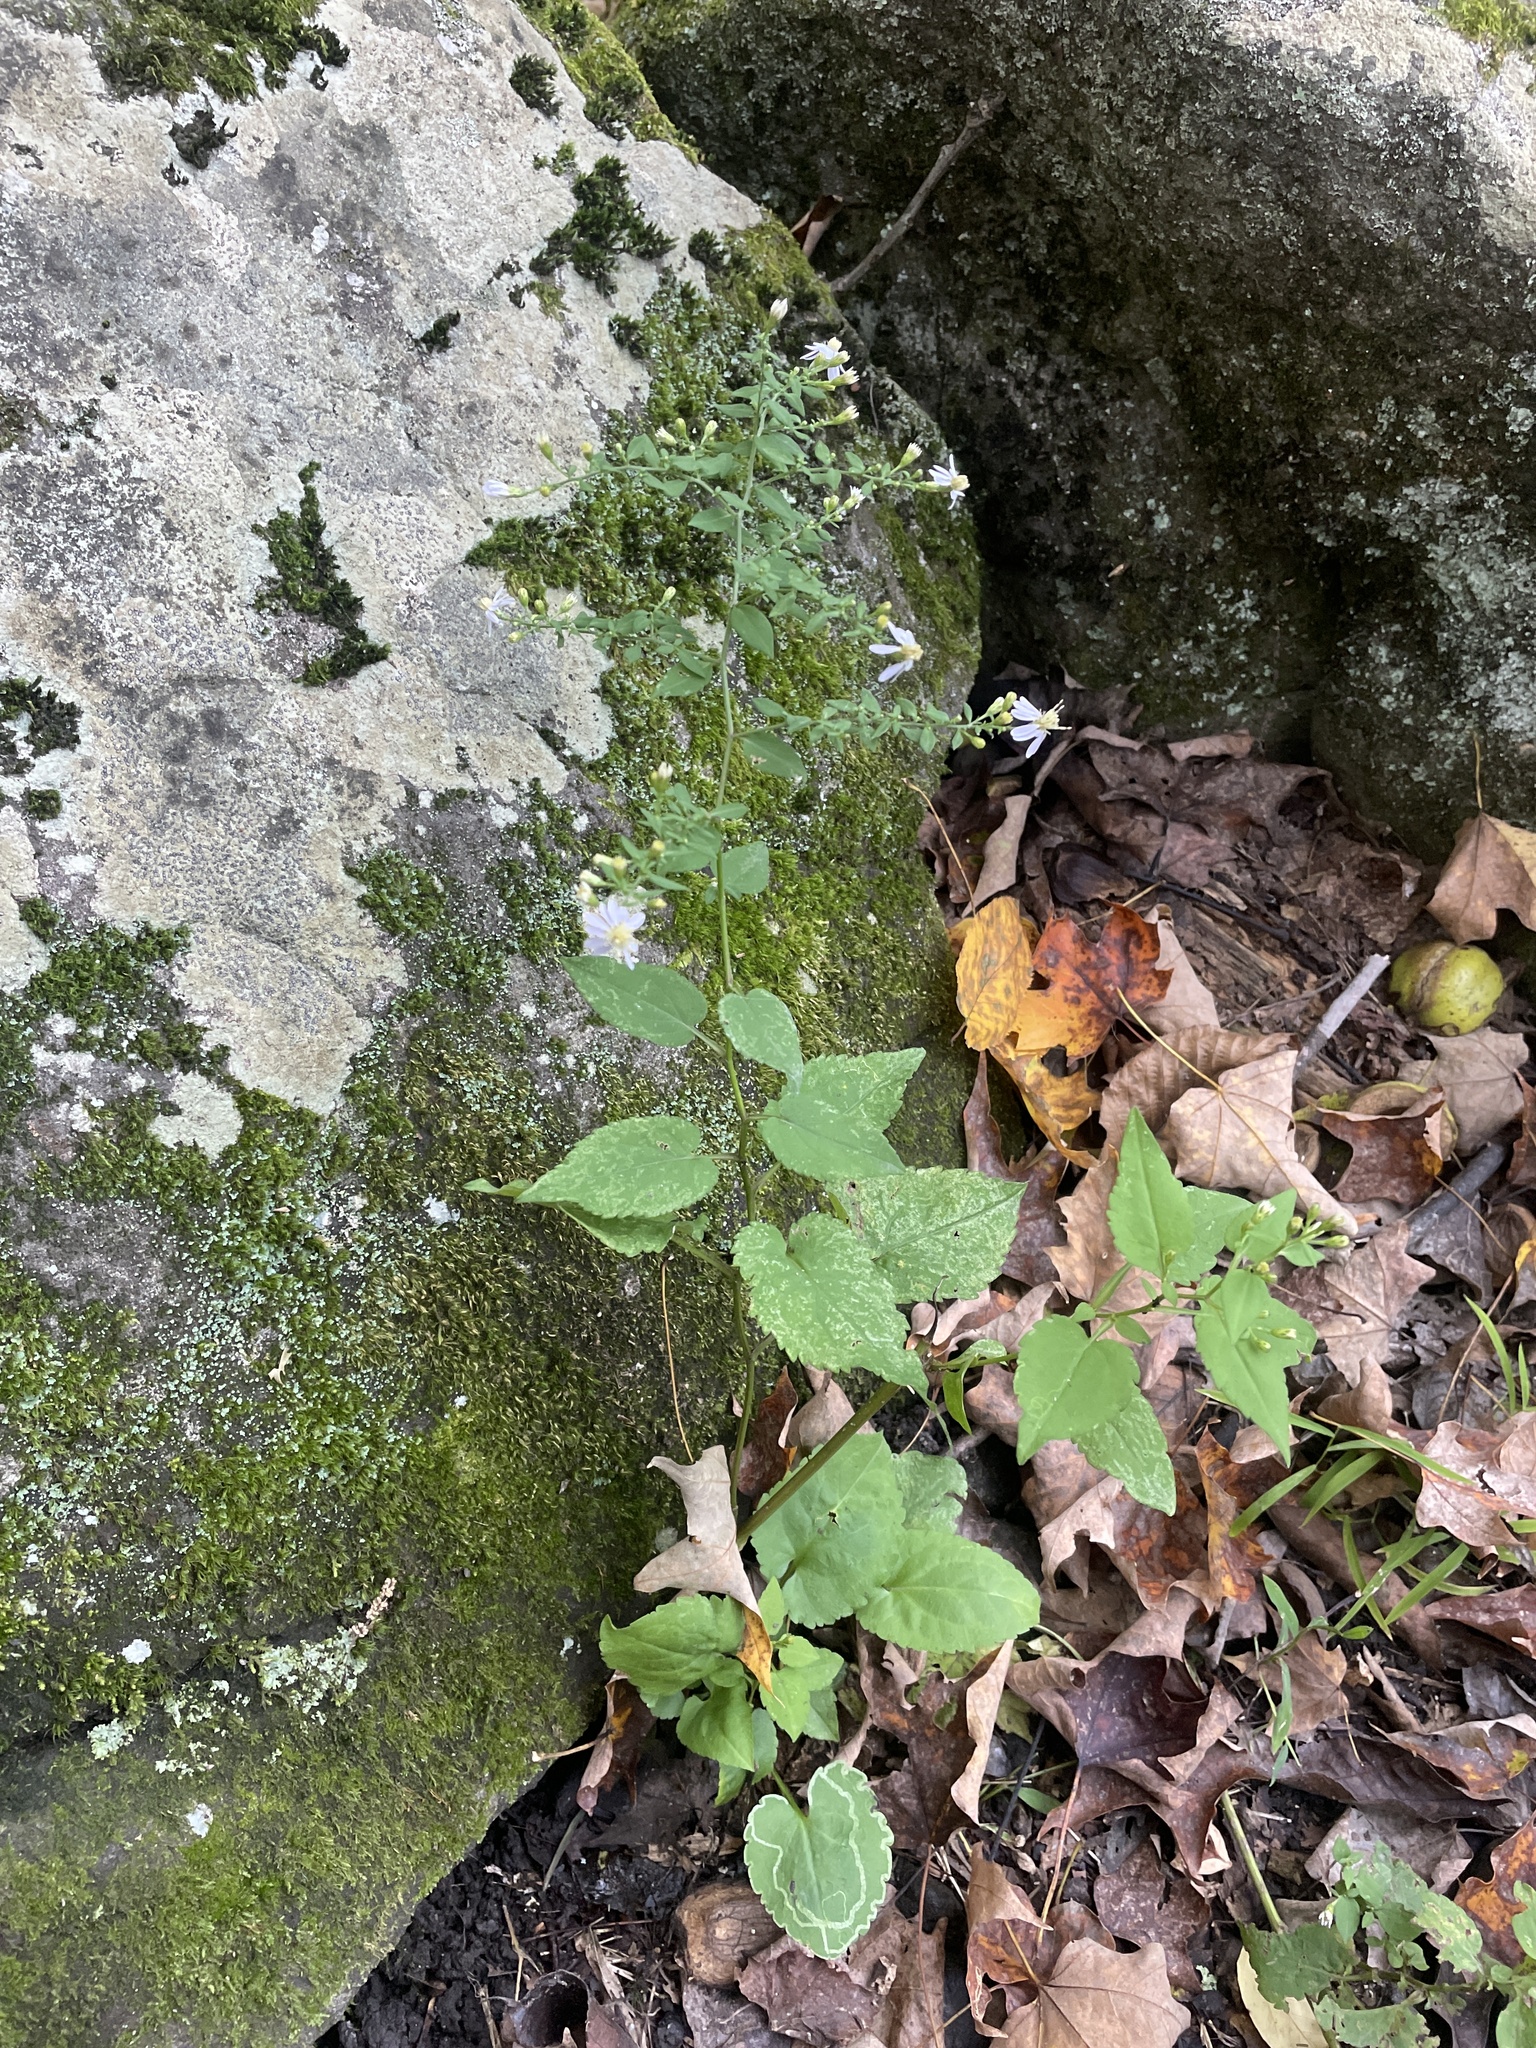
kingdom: Plantae
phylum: Tracheophyta
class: Magnoliopsida
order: Asterales
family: Asteraceae
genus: Symphyotrichum
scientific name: Symphyotrichum cordifolium
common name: Beeweed
